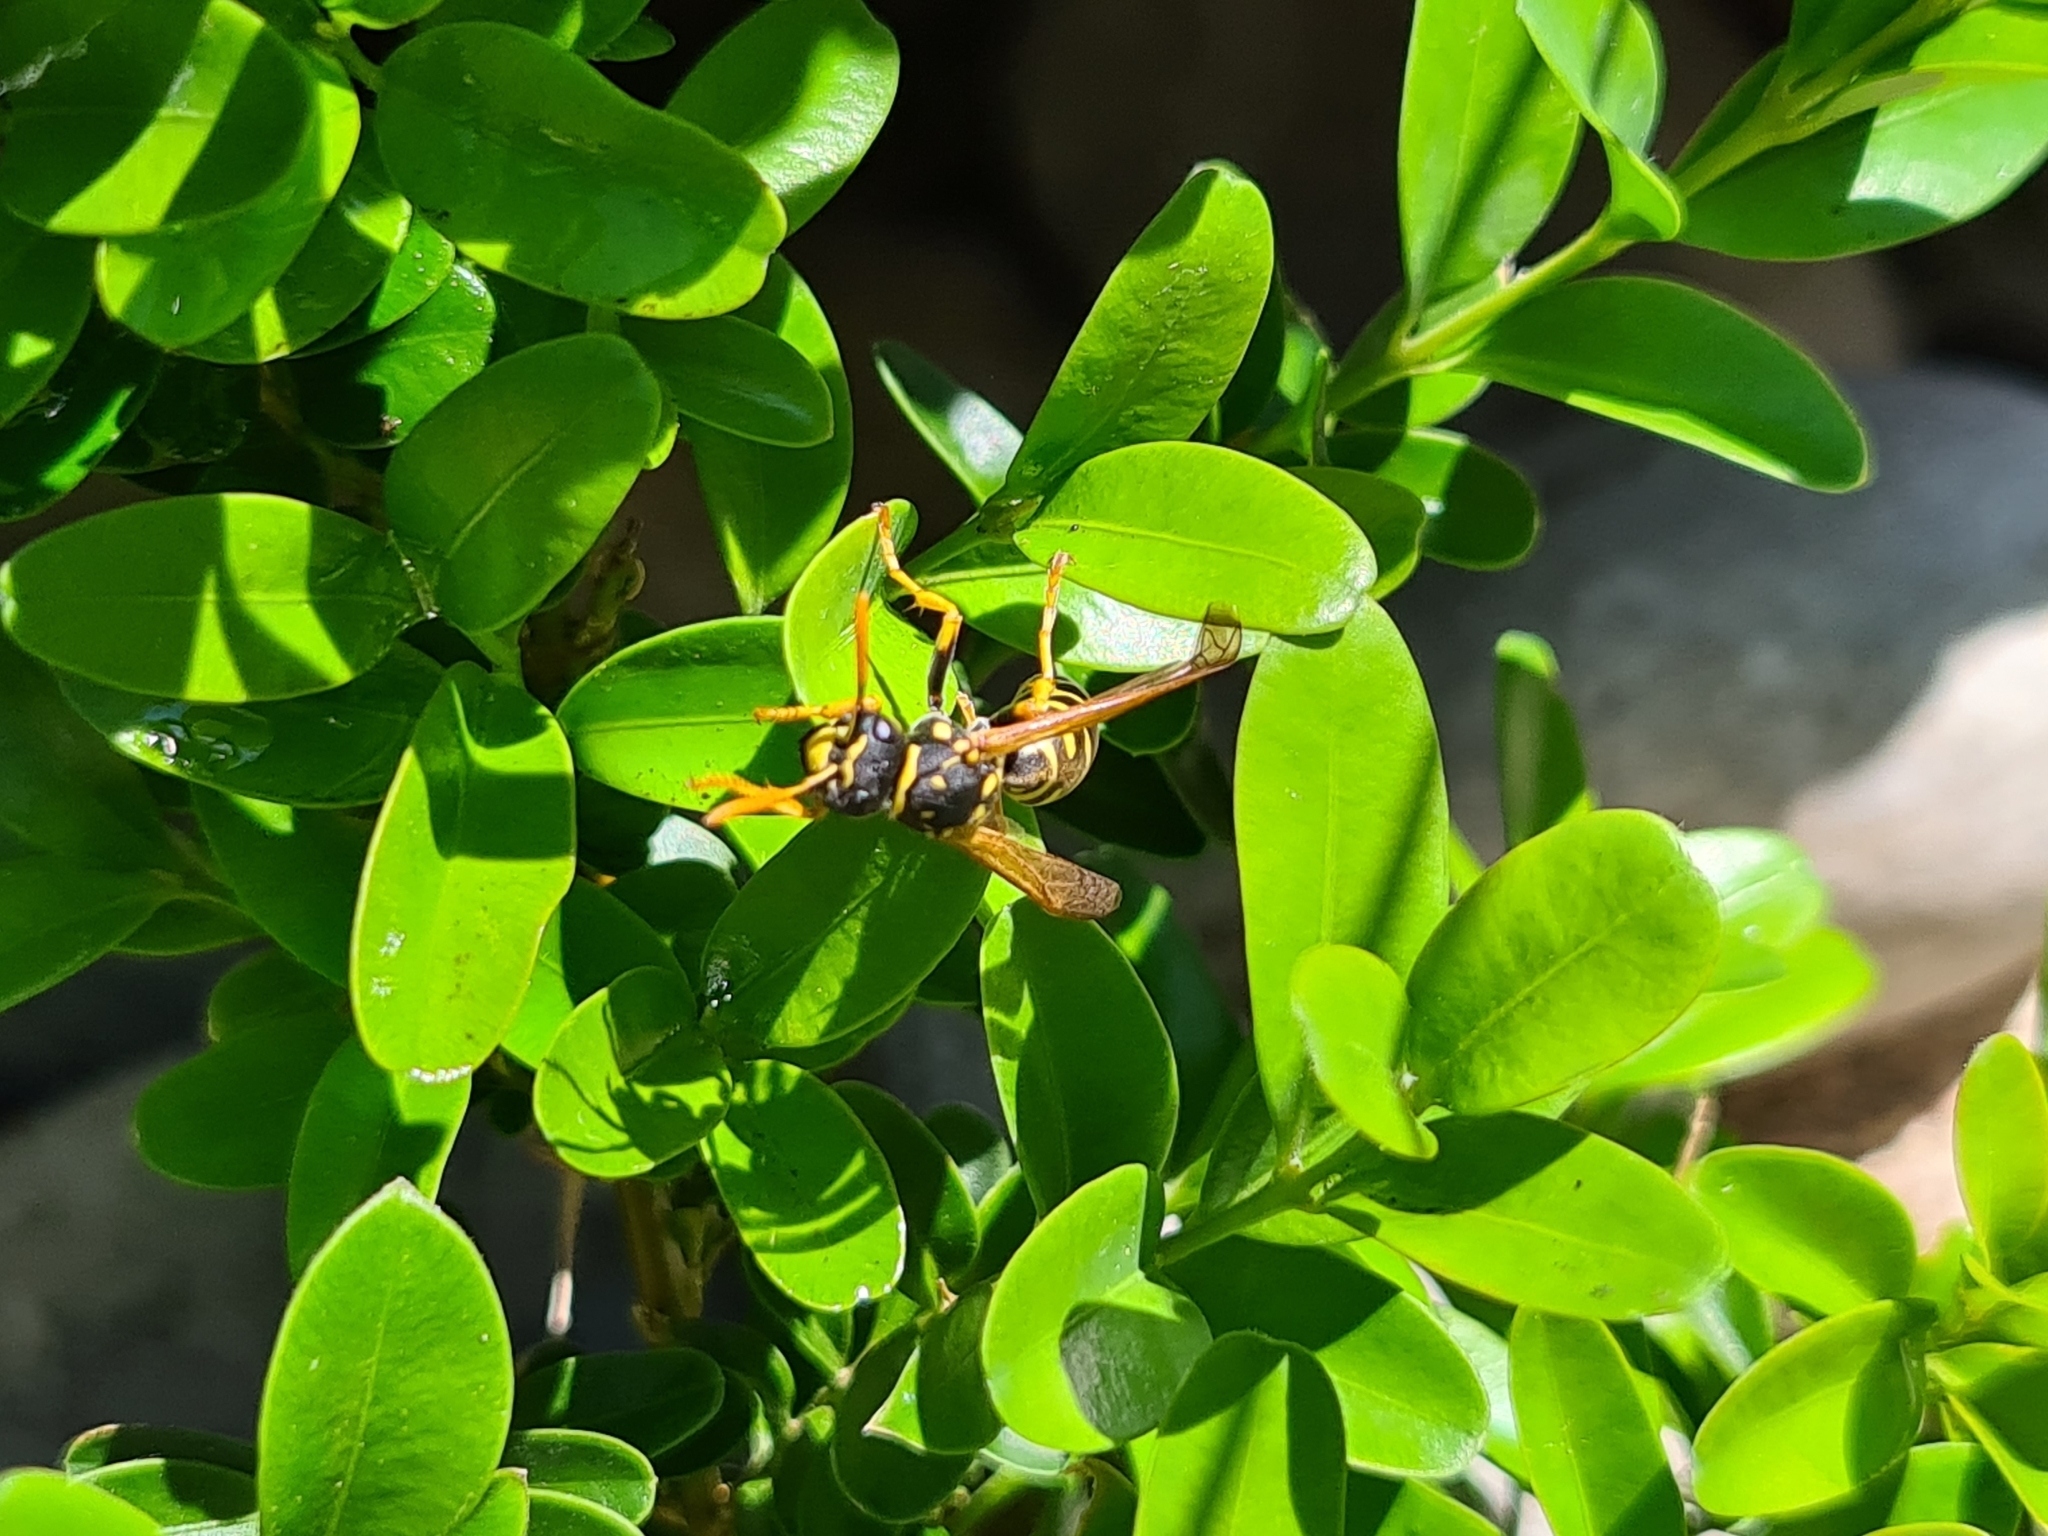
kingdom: Animalia
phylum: Arthropoda
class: Insecta
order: Hymenoptera
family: Eumenidae
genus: Polistes
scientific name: Polistes dominula
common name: Paper wasp
